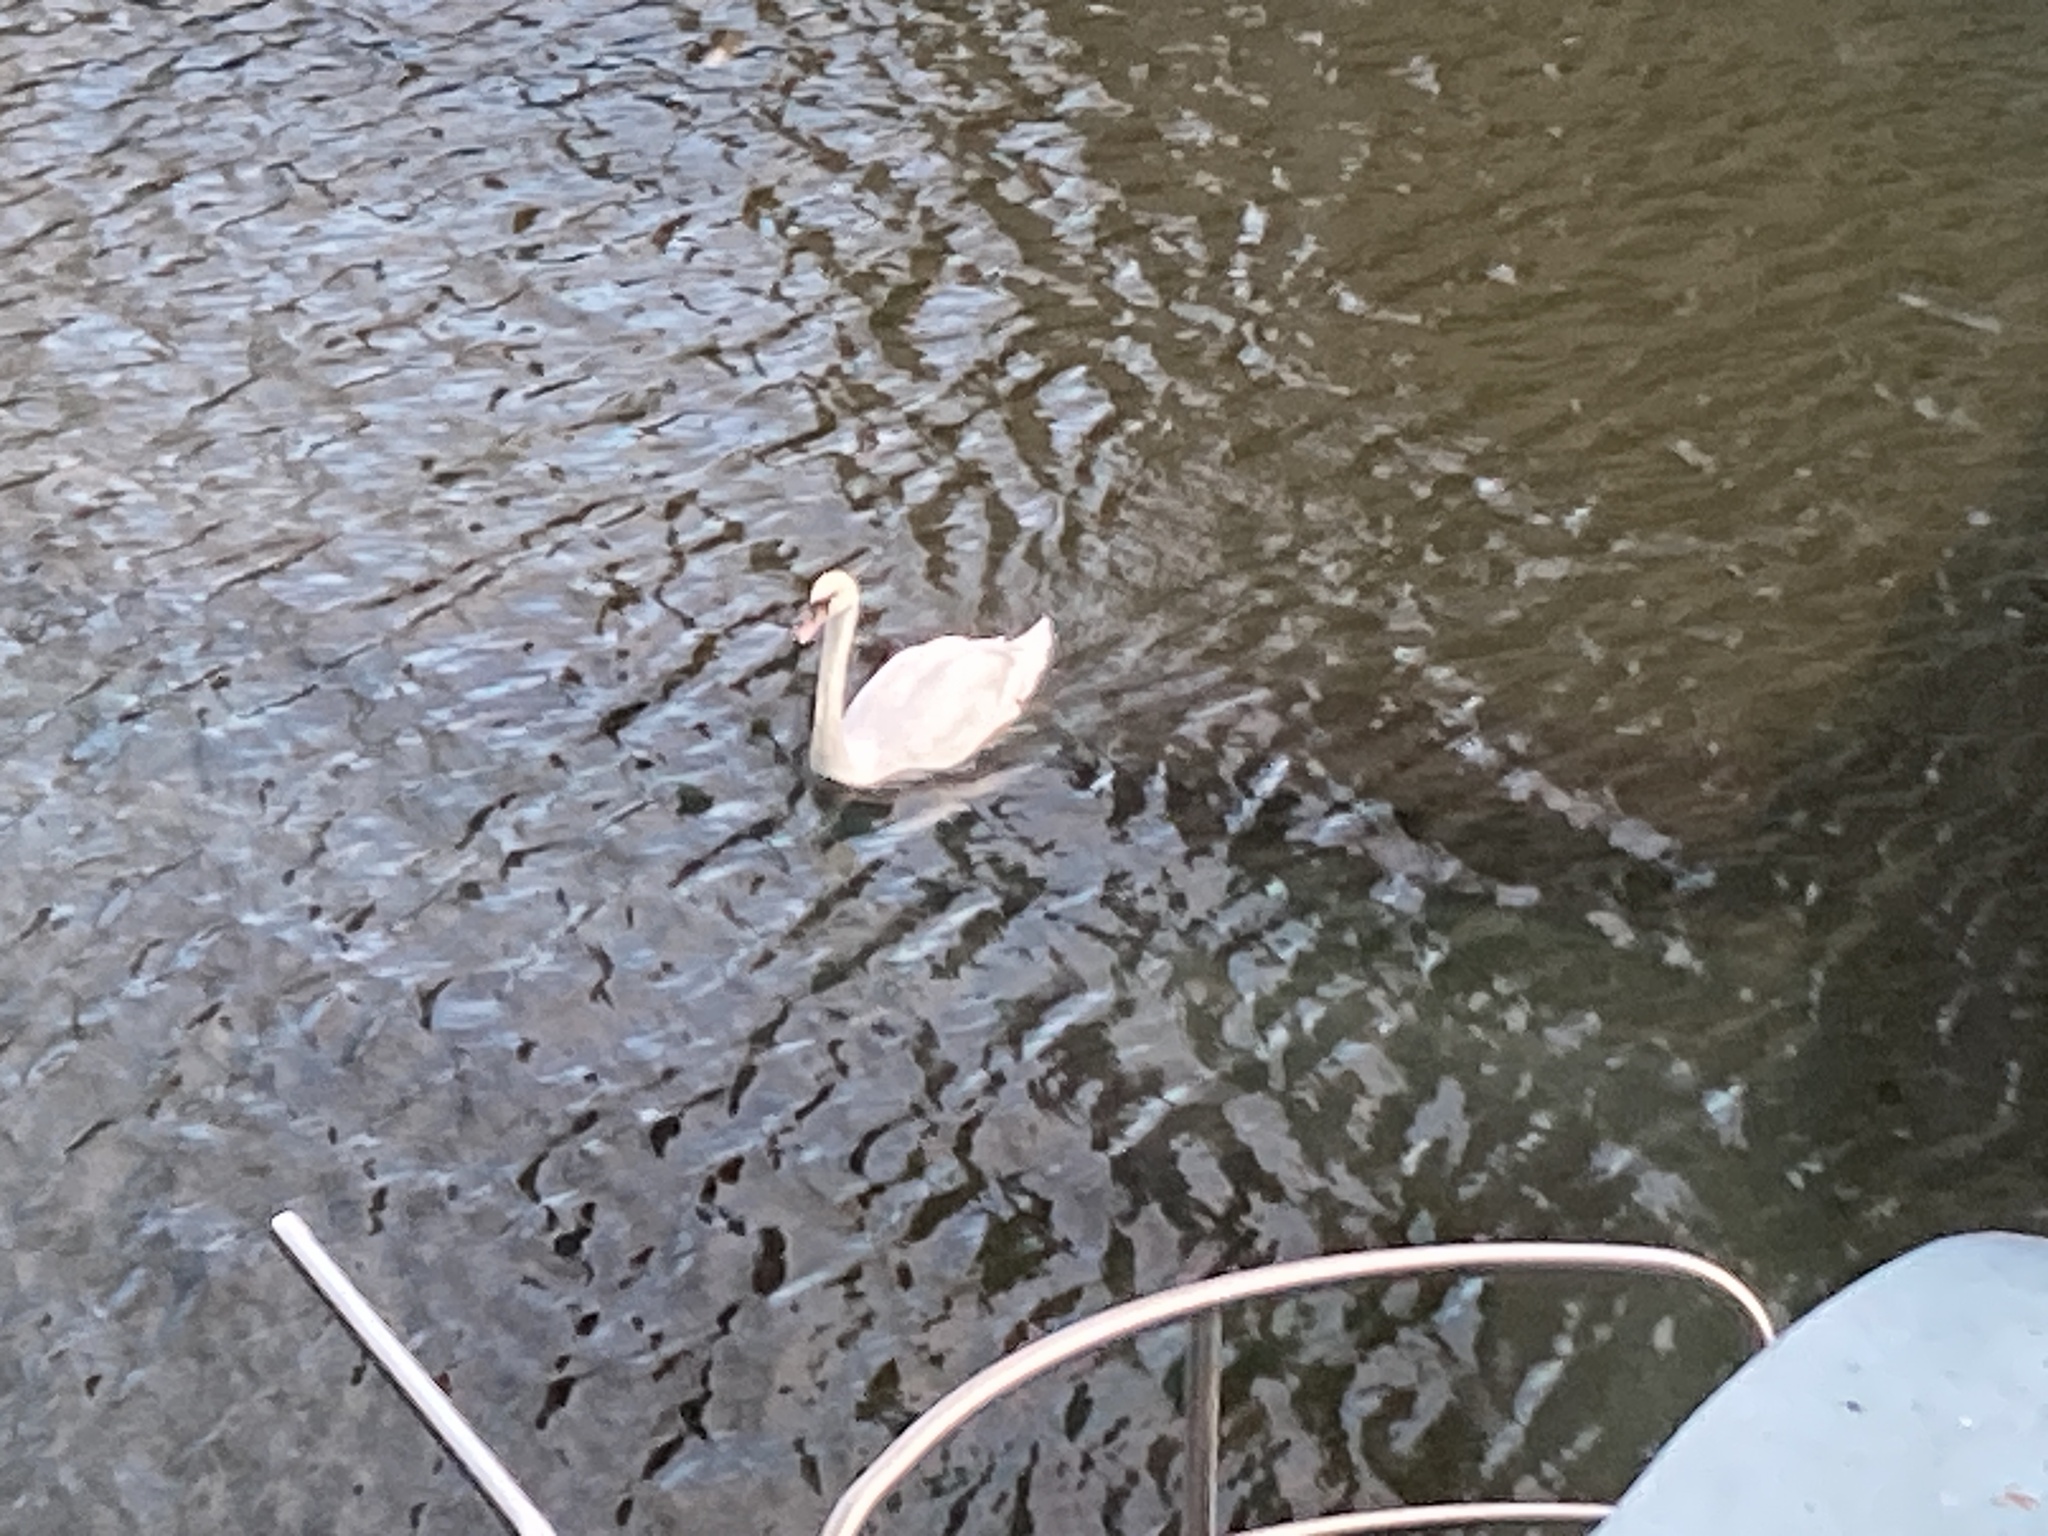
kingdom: Animalia
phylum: Chordata
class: Aves
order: Anseriformes
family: Anatidae
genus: Cygnus
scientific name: Cygnus olor
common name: Mute swan
